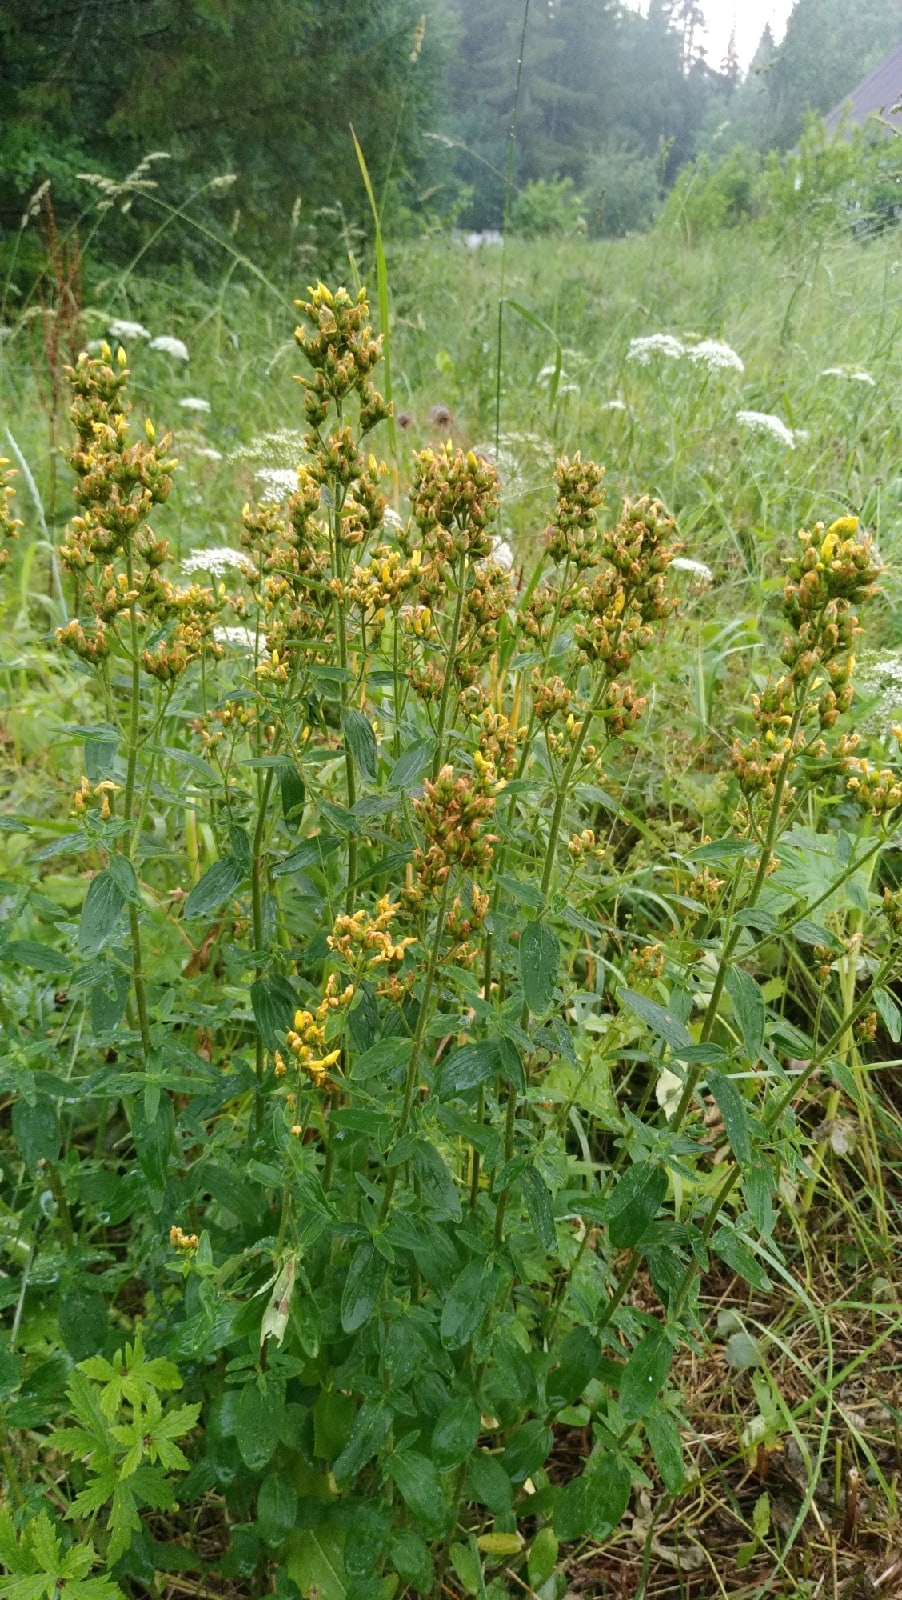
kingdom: Plantae
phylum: Tracheophyta
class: Magnoliopsida
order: Malpighiales
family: Hypericaceae
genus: Hypericum
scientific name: Hypericum hirsutum
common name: Hairy st. john's-wort
